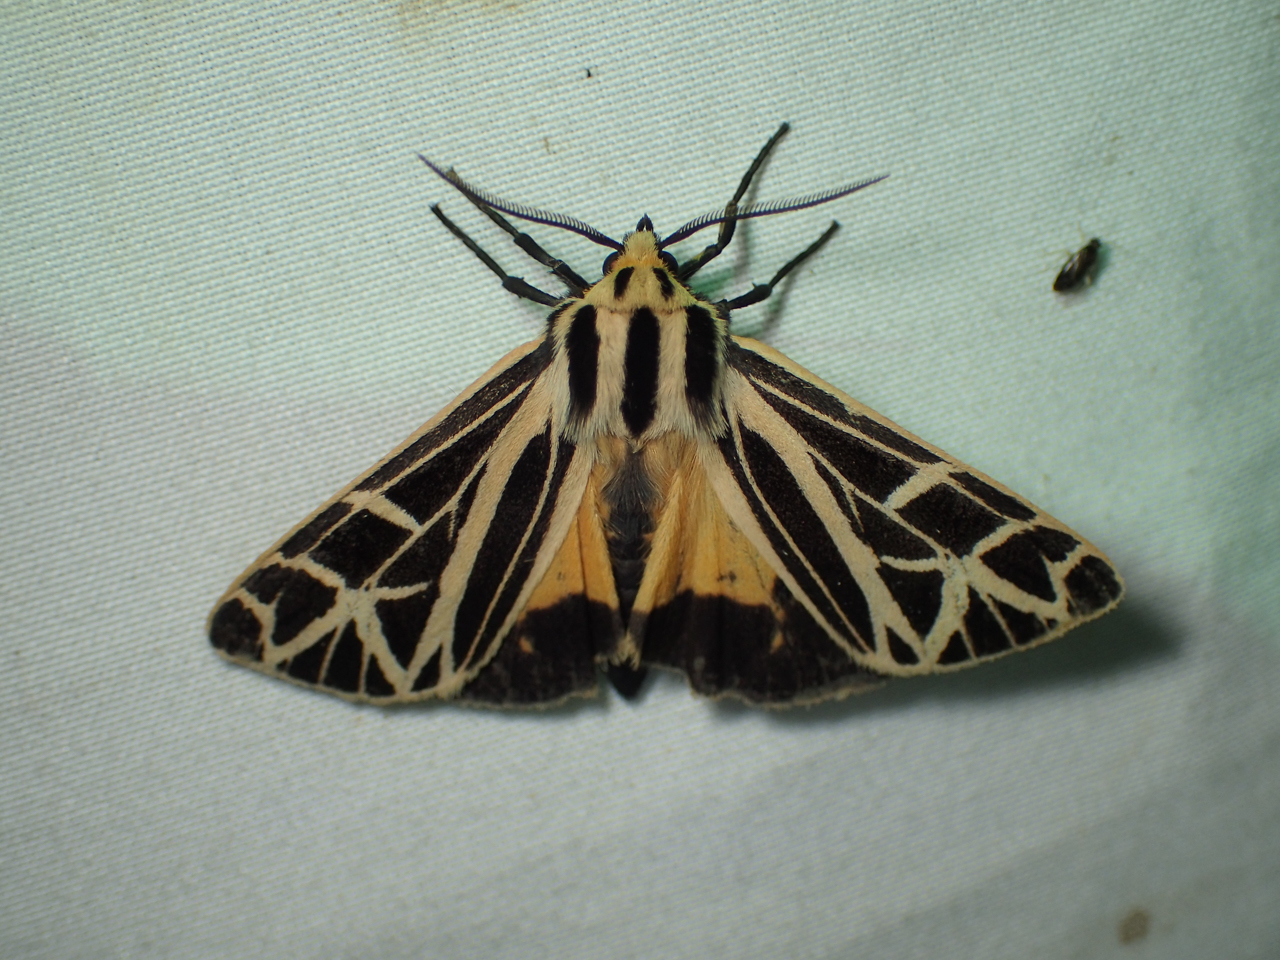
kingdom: Animalia
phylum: Arthropoda
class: Insecta
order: Lepidoptera
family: Erebidae
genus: Apantesis
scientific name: Apantesis
